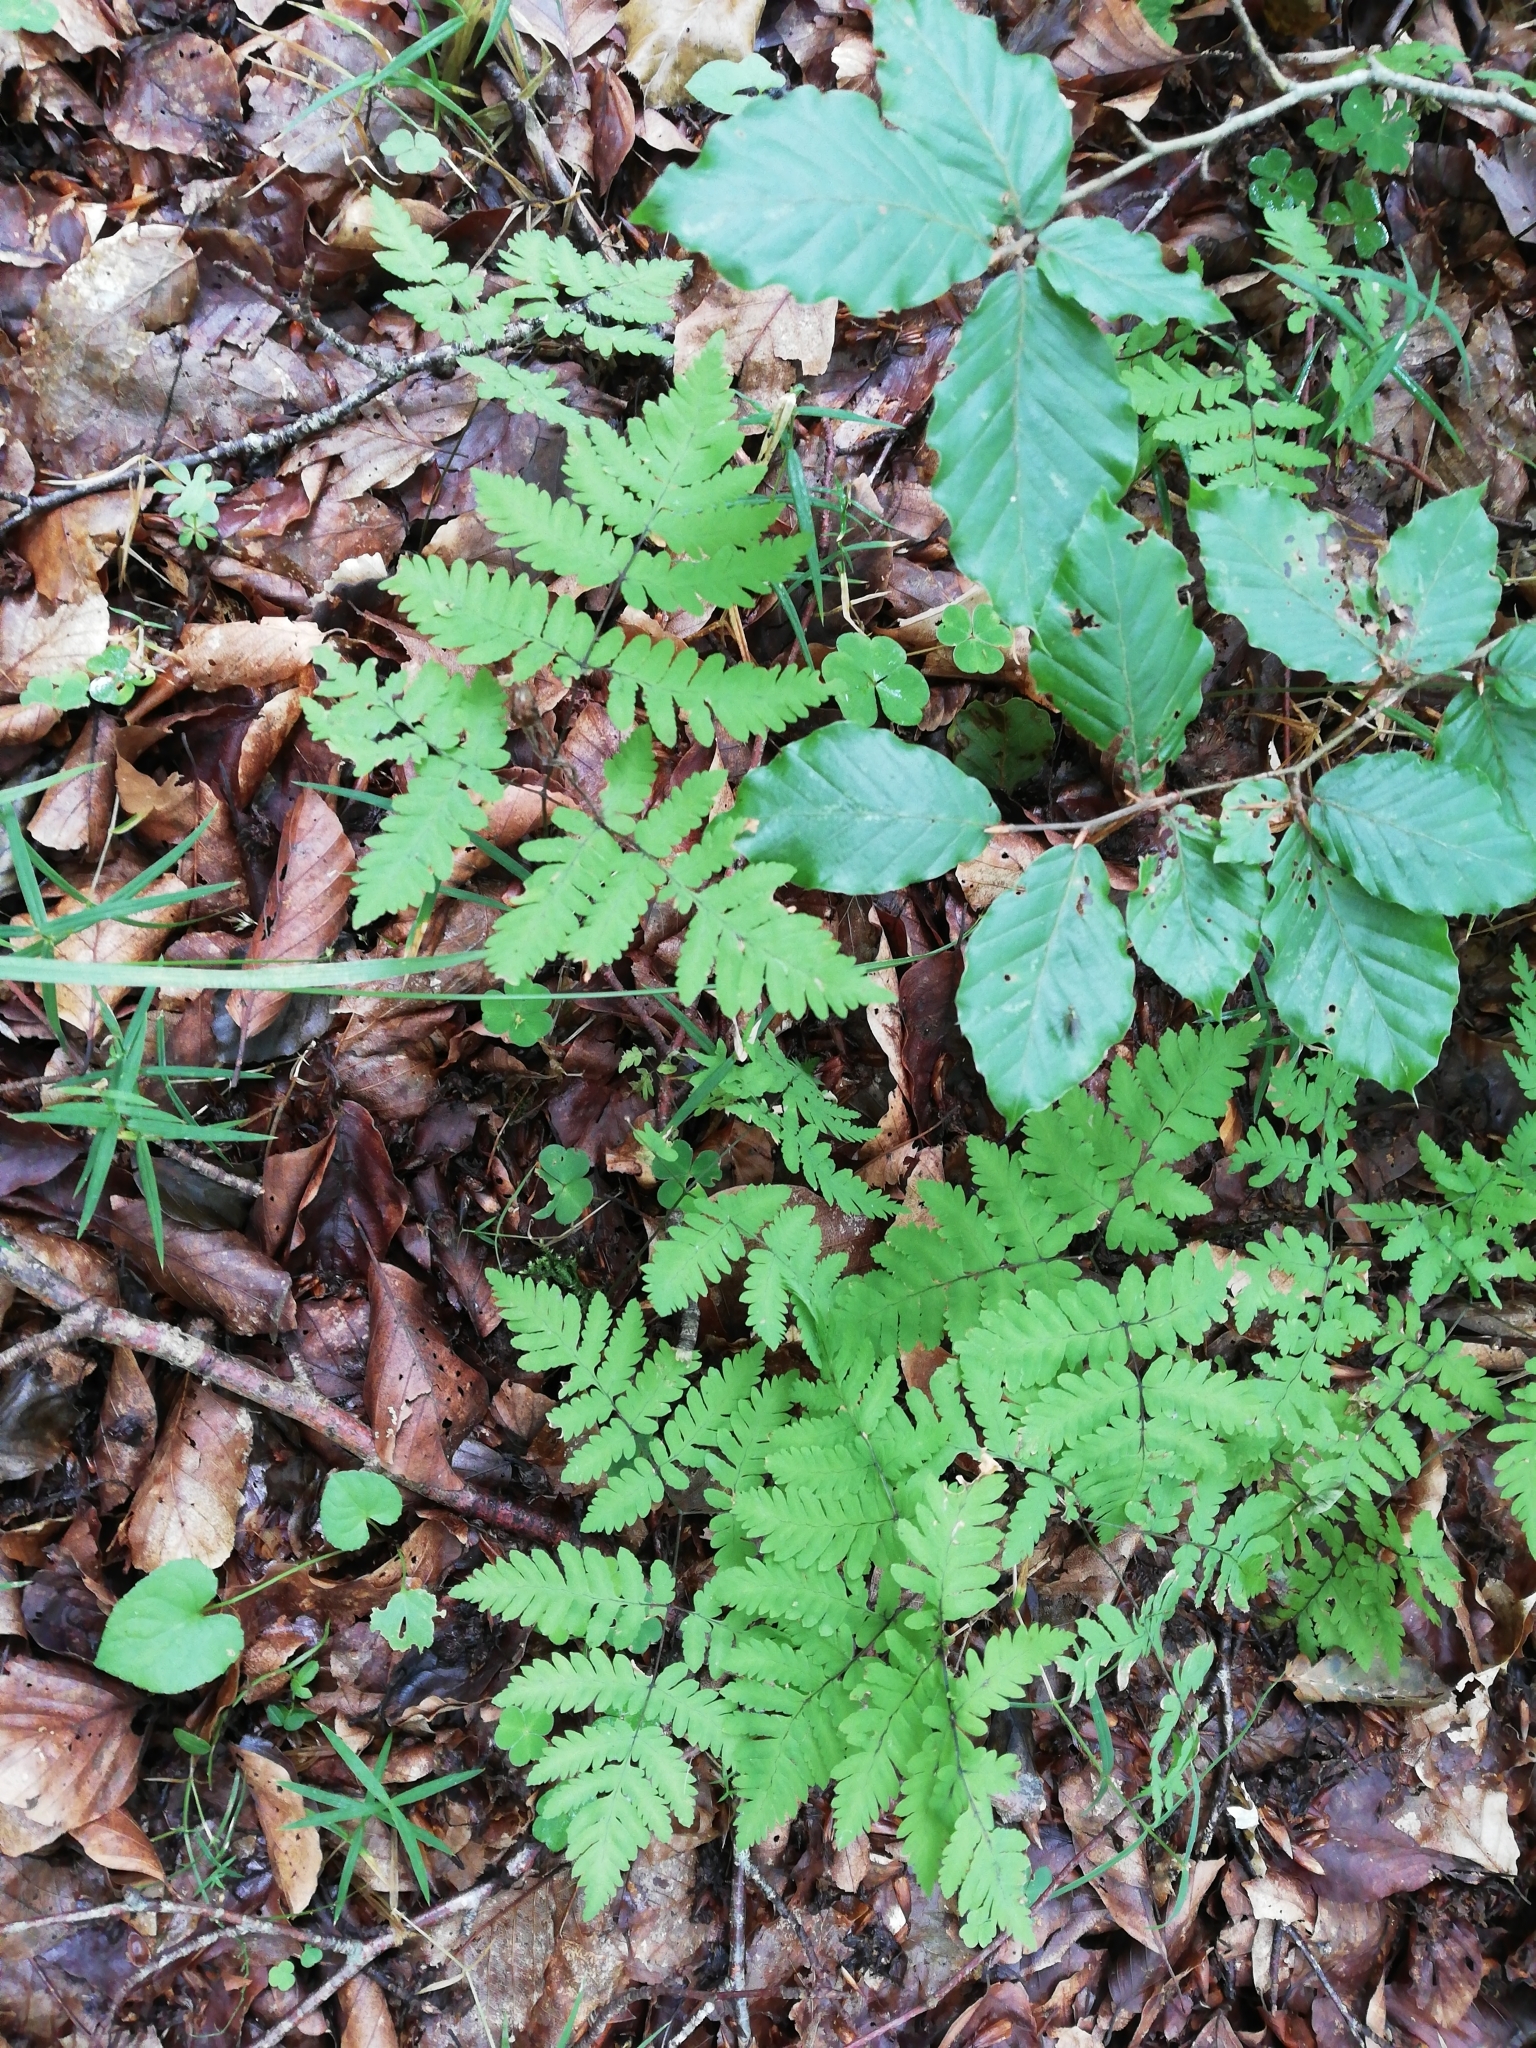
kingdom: Plantae
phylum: Tracheophyta
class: Polypodiopsida
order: Polypodiales
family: Cystopteridaceae
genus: Gymnocarpium
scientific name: Gymnocarpium dryopteris
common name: Oak fern
